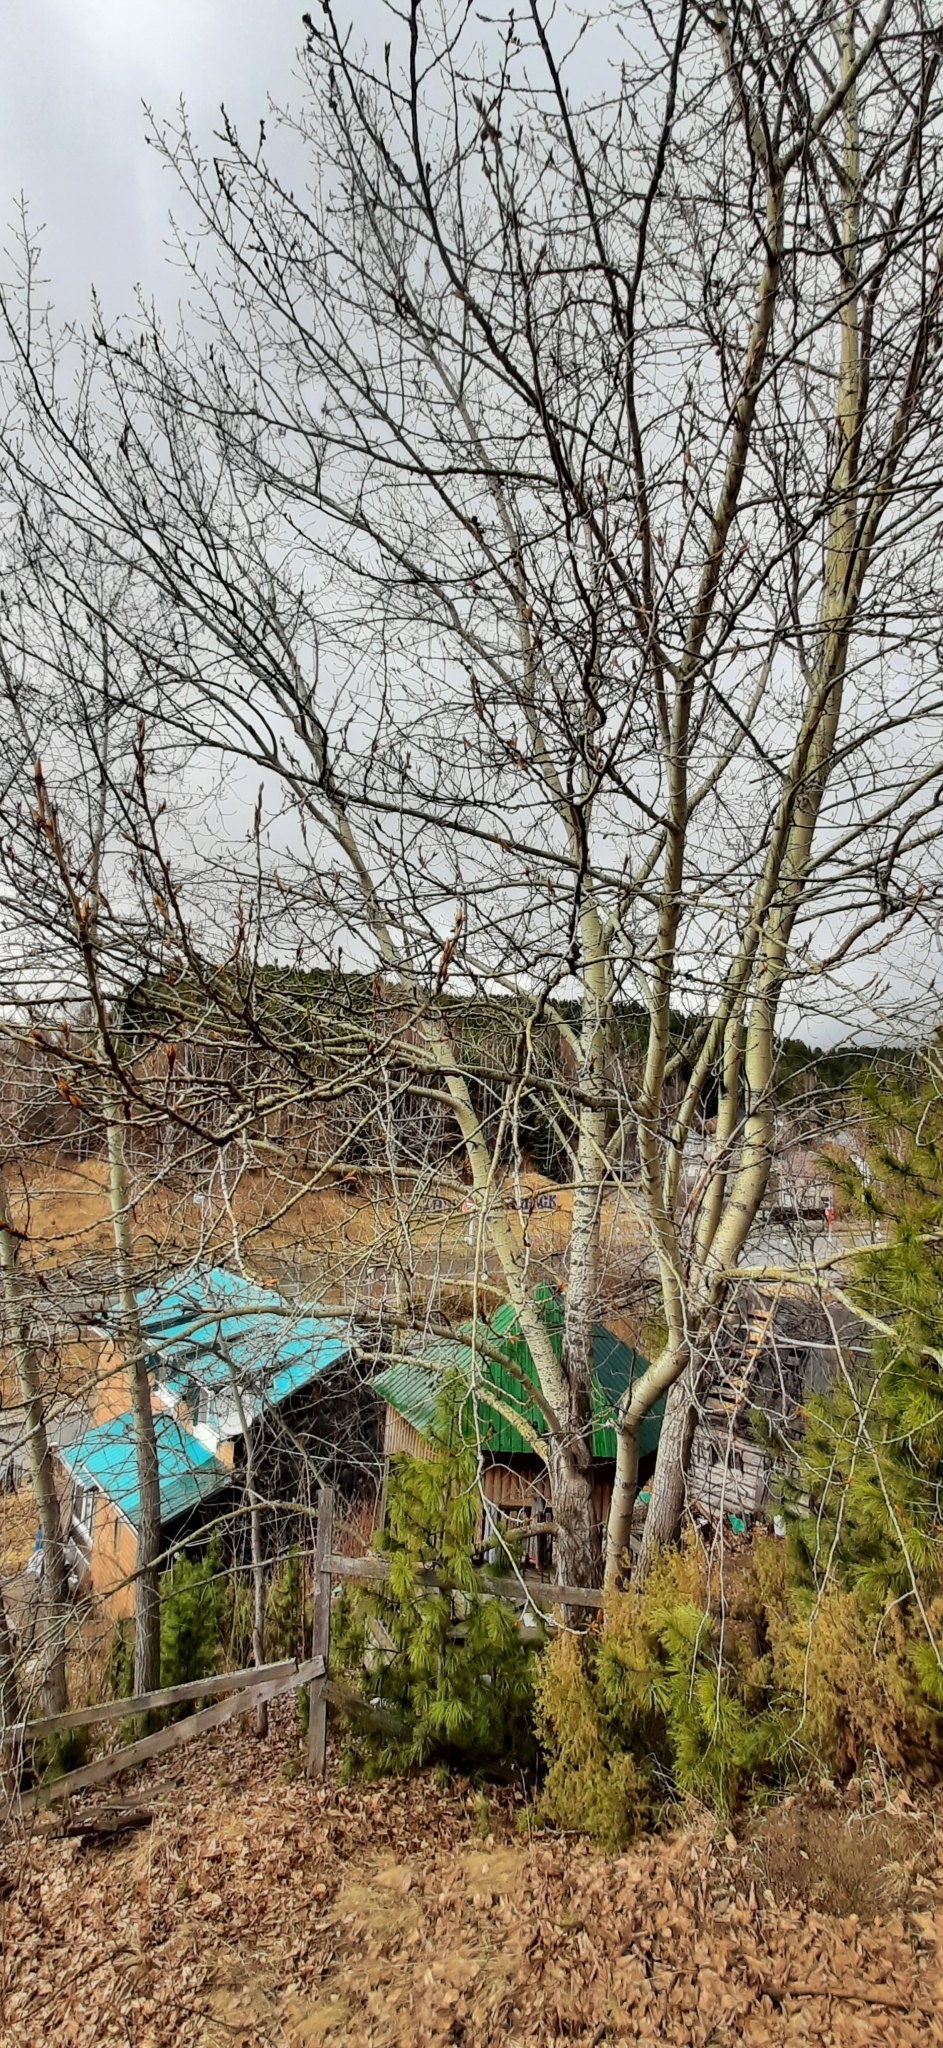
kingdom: Plantae
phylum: Tracheophyta
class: Magnoliopsida
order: Malpighiales
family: Salicaceae
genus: Populus
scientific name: Populus sibirica
